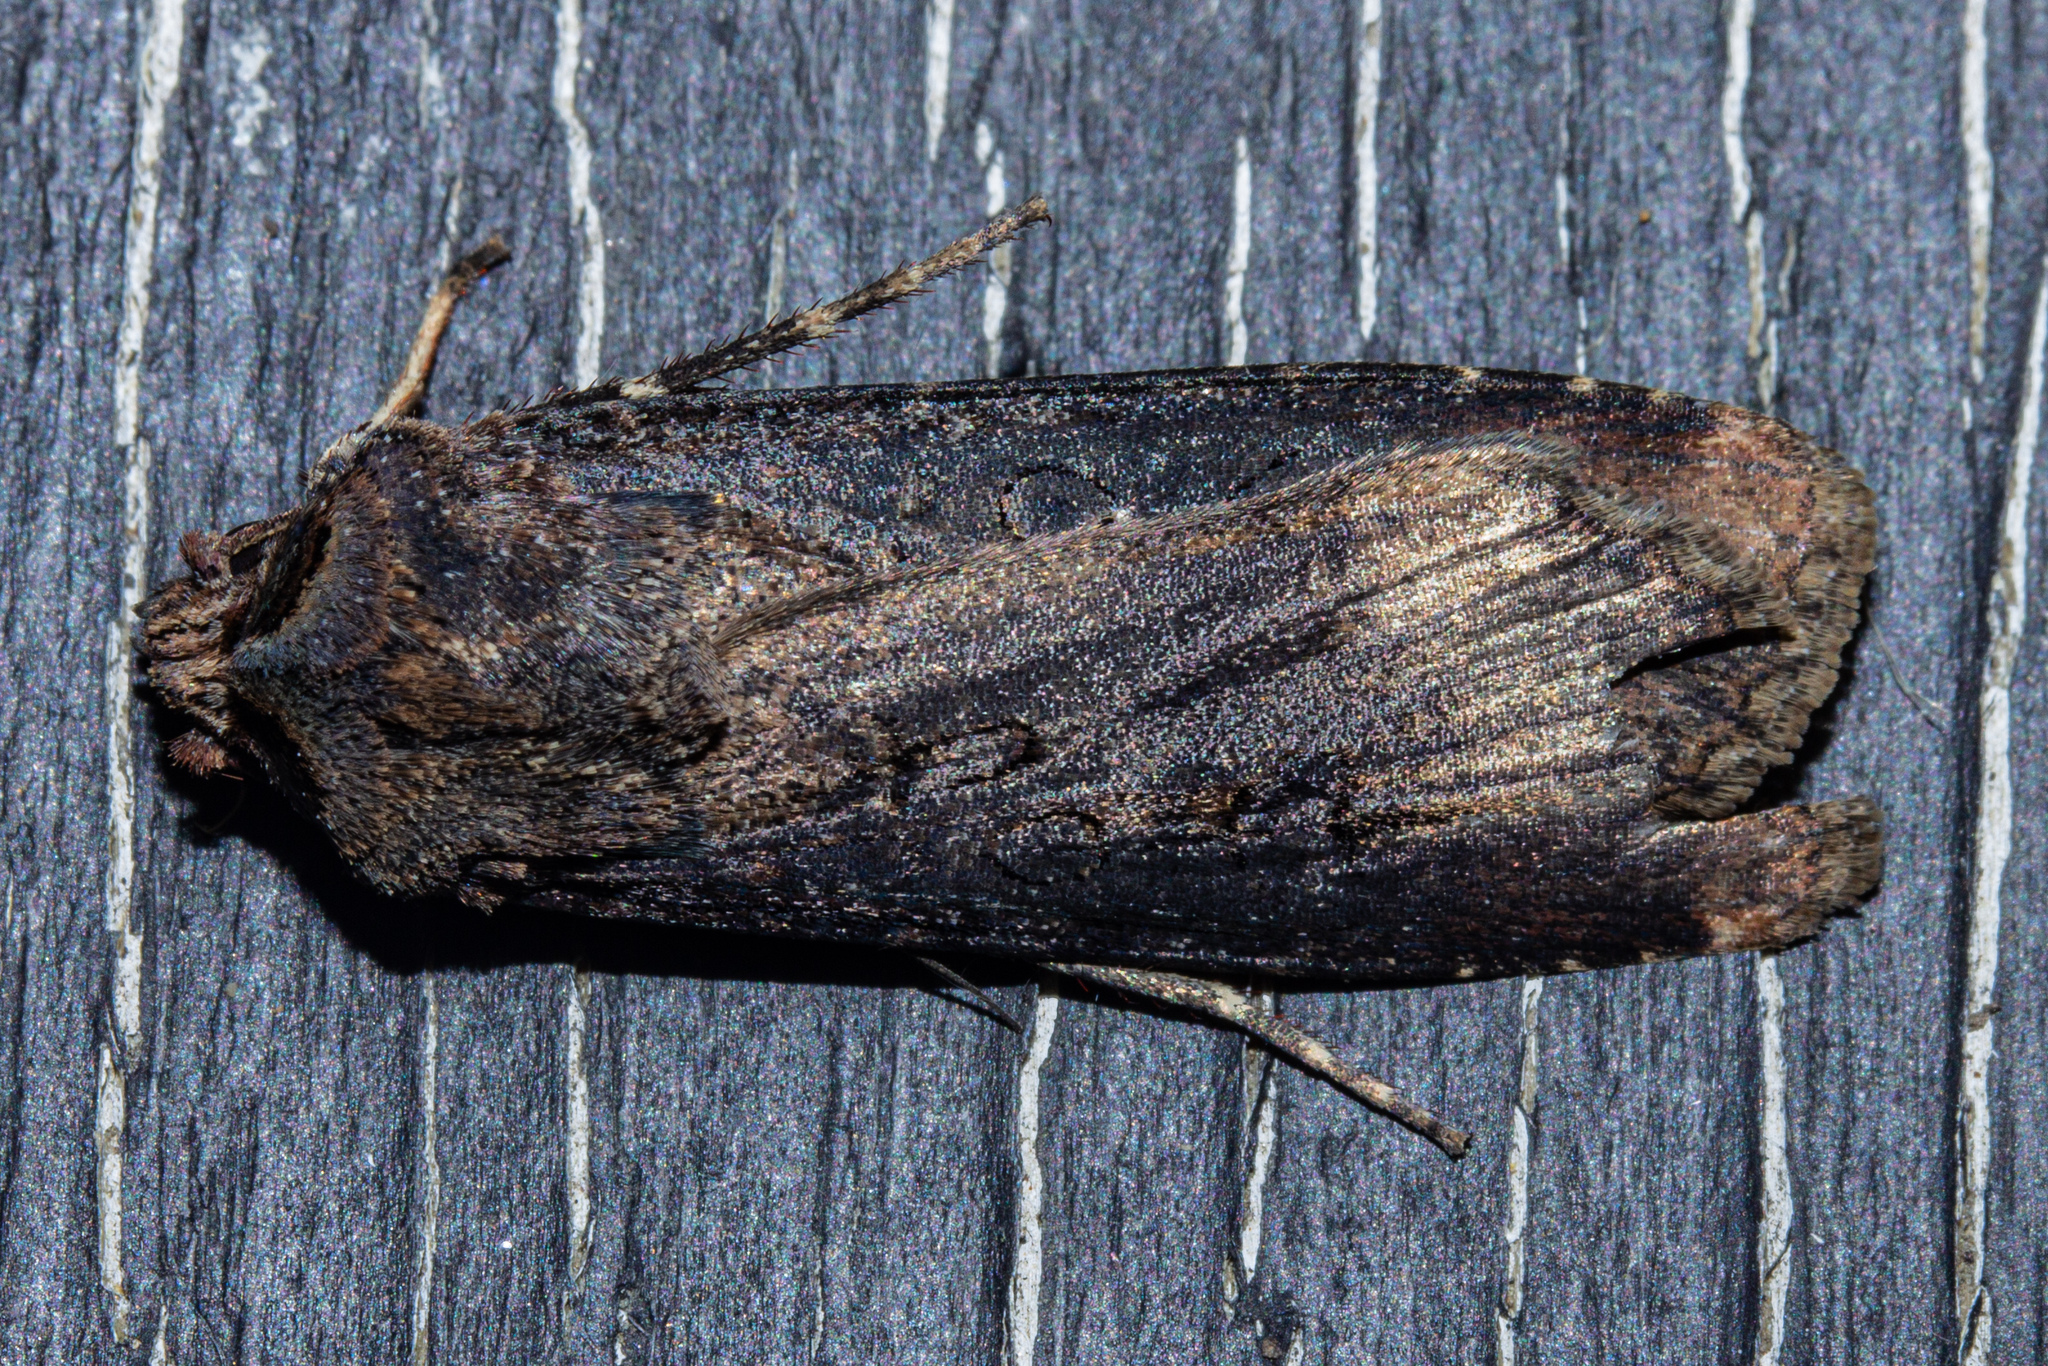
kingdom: Animalia
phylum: Arthropoda
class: Insecta
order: Lepidoptera
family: Noctuidae
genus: Agrotis
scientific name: Agrotis ipsilon
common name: Dark sword-grass
